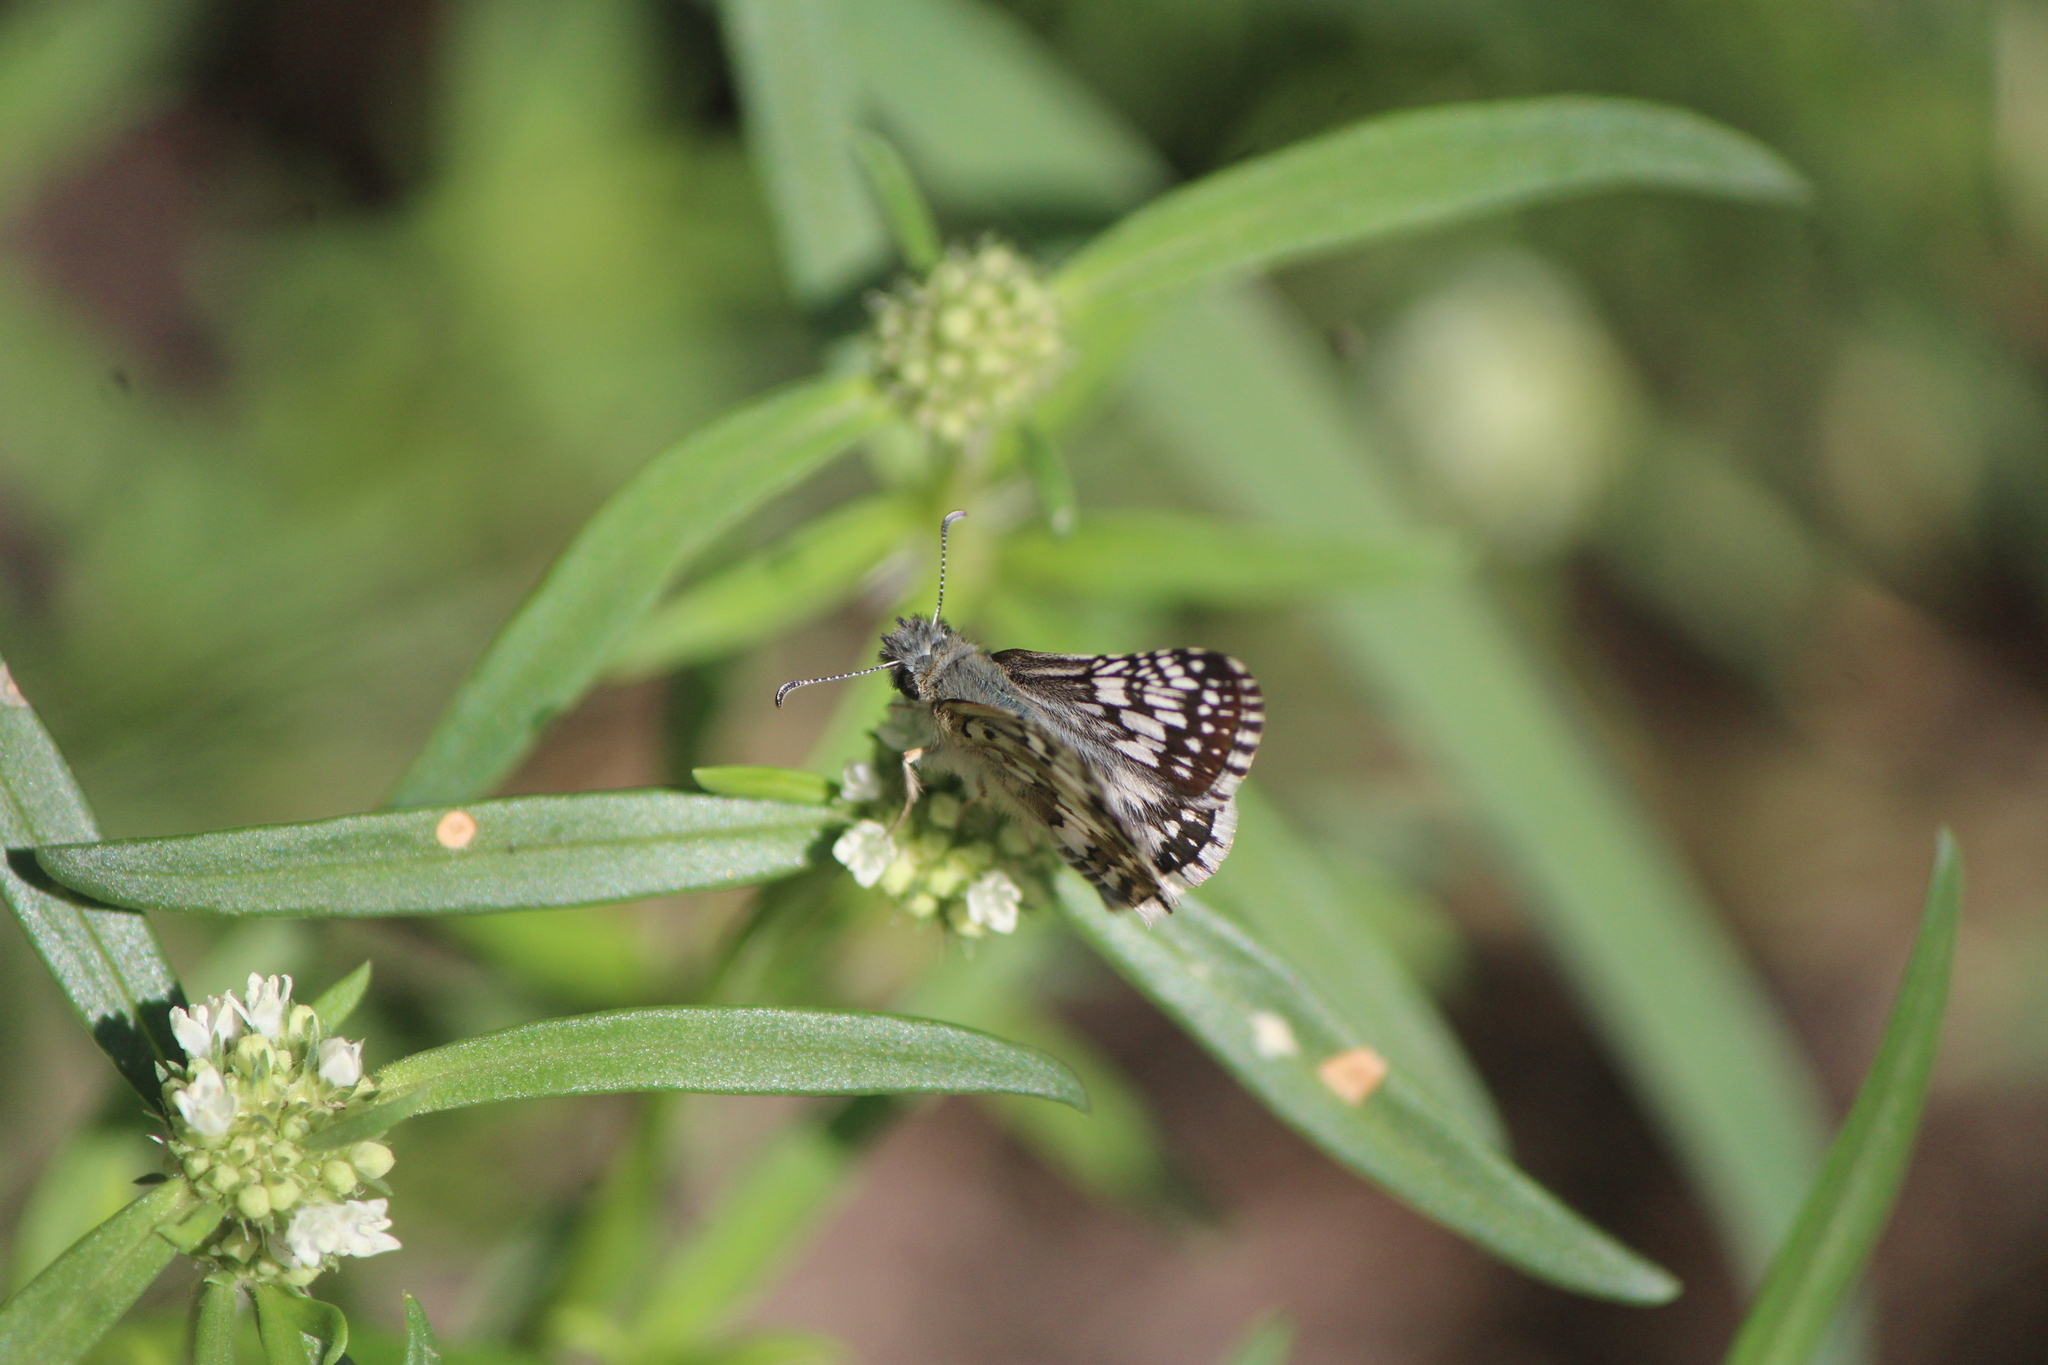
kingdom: Animalia
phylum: Arthropoda
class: Insecta
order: Lepidoptera
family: Hesperiidae
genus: Burnsius
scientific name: Burnsius
